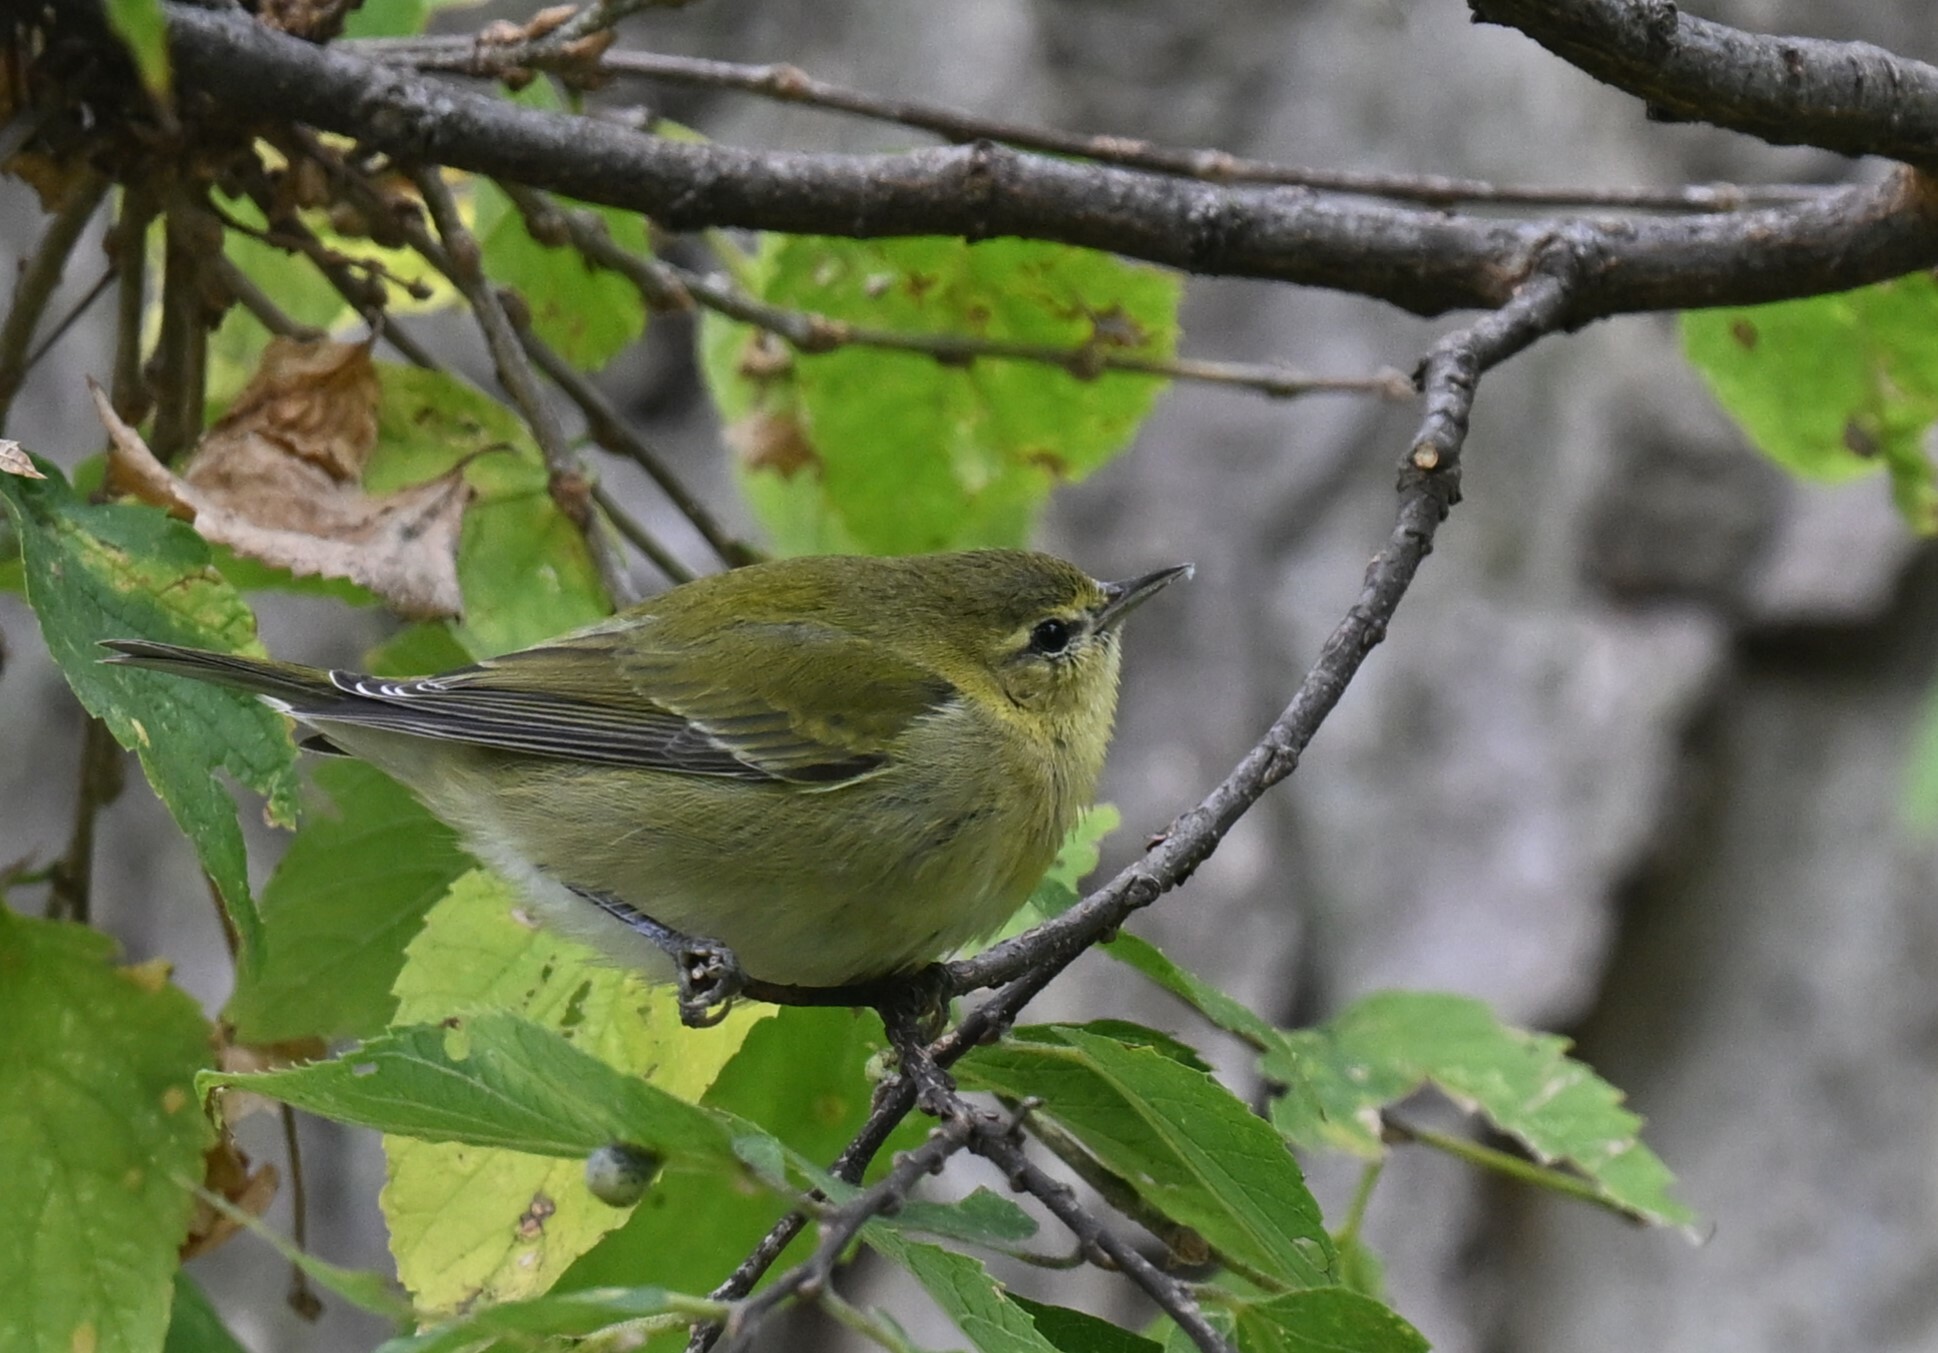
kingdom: Animalia
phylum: Chordata
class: Aves
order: Passeriformes
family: Parulidae
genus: Leiothlypis
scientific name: Leiothlypis peregrina
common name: Tennessee warbler
